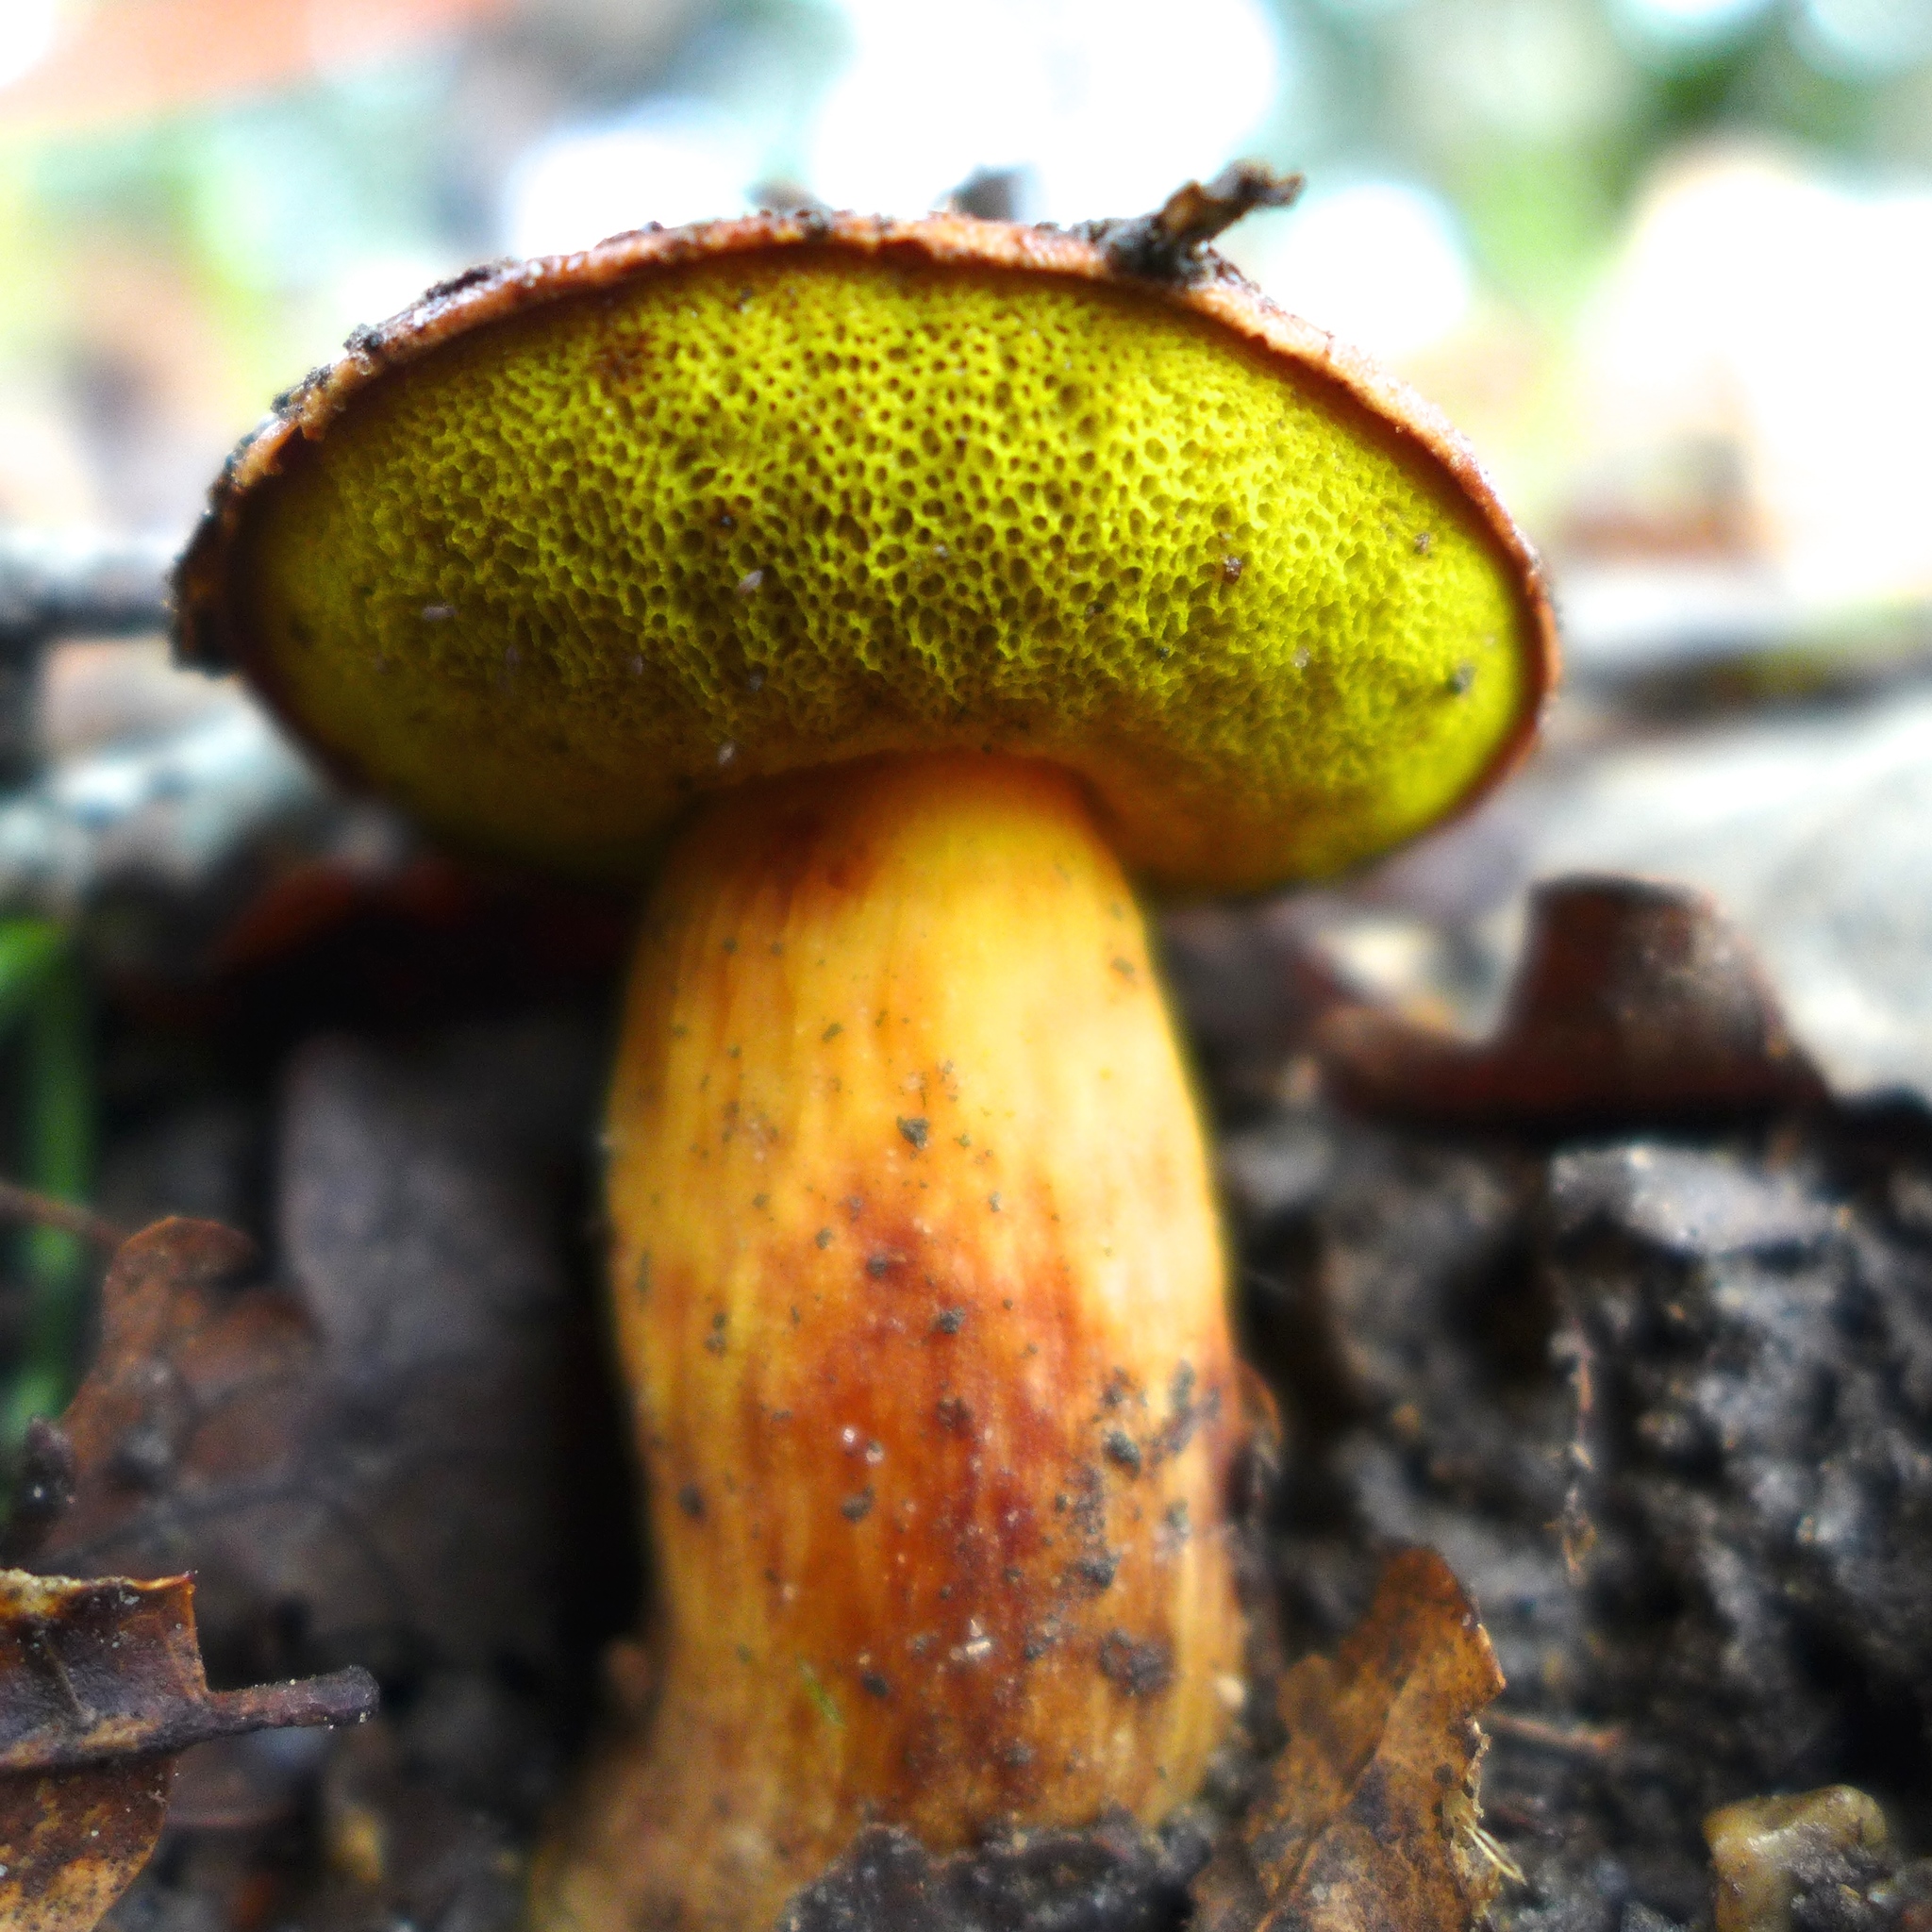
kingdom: Fungi
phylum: Basidiomycota
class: Agaricomycetes
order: Boletales
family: Boletaceae
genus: Aureoboletus
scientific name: Aureoboletus flaviporus
